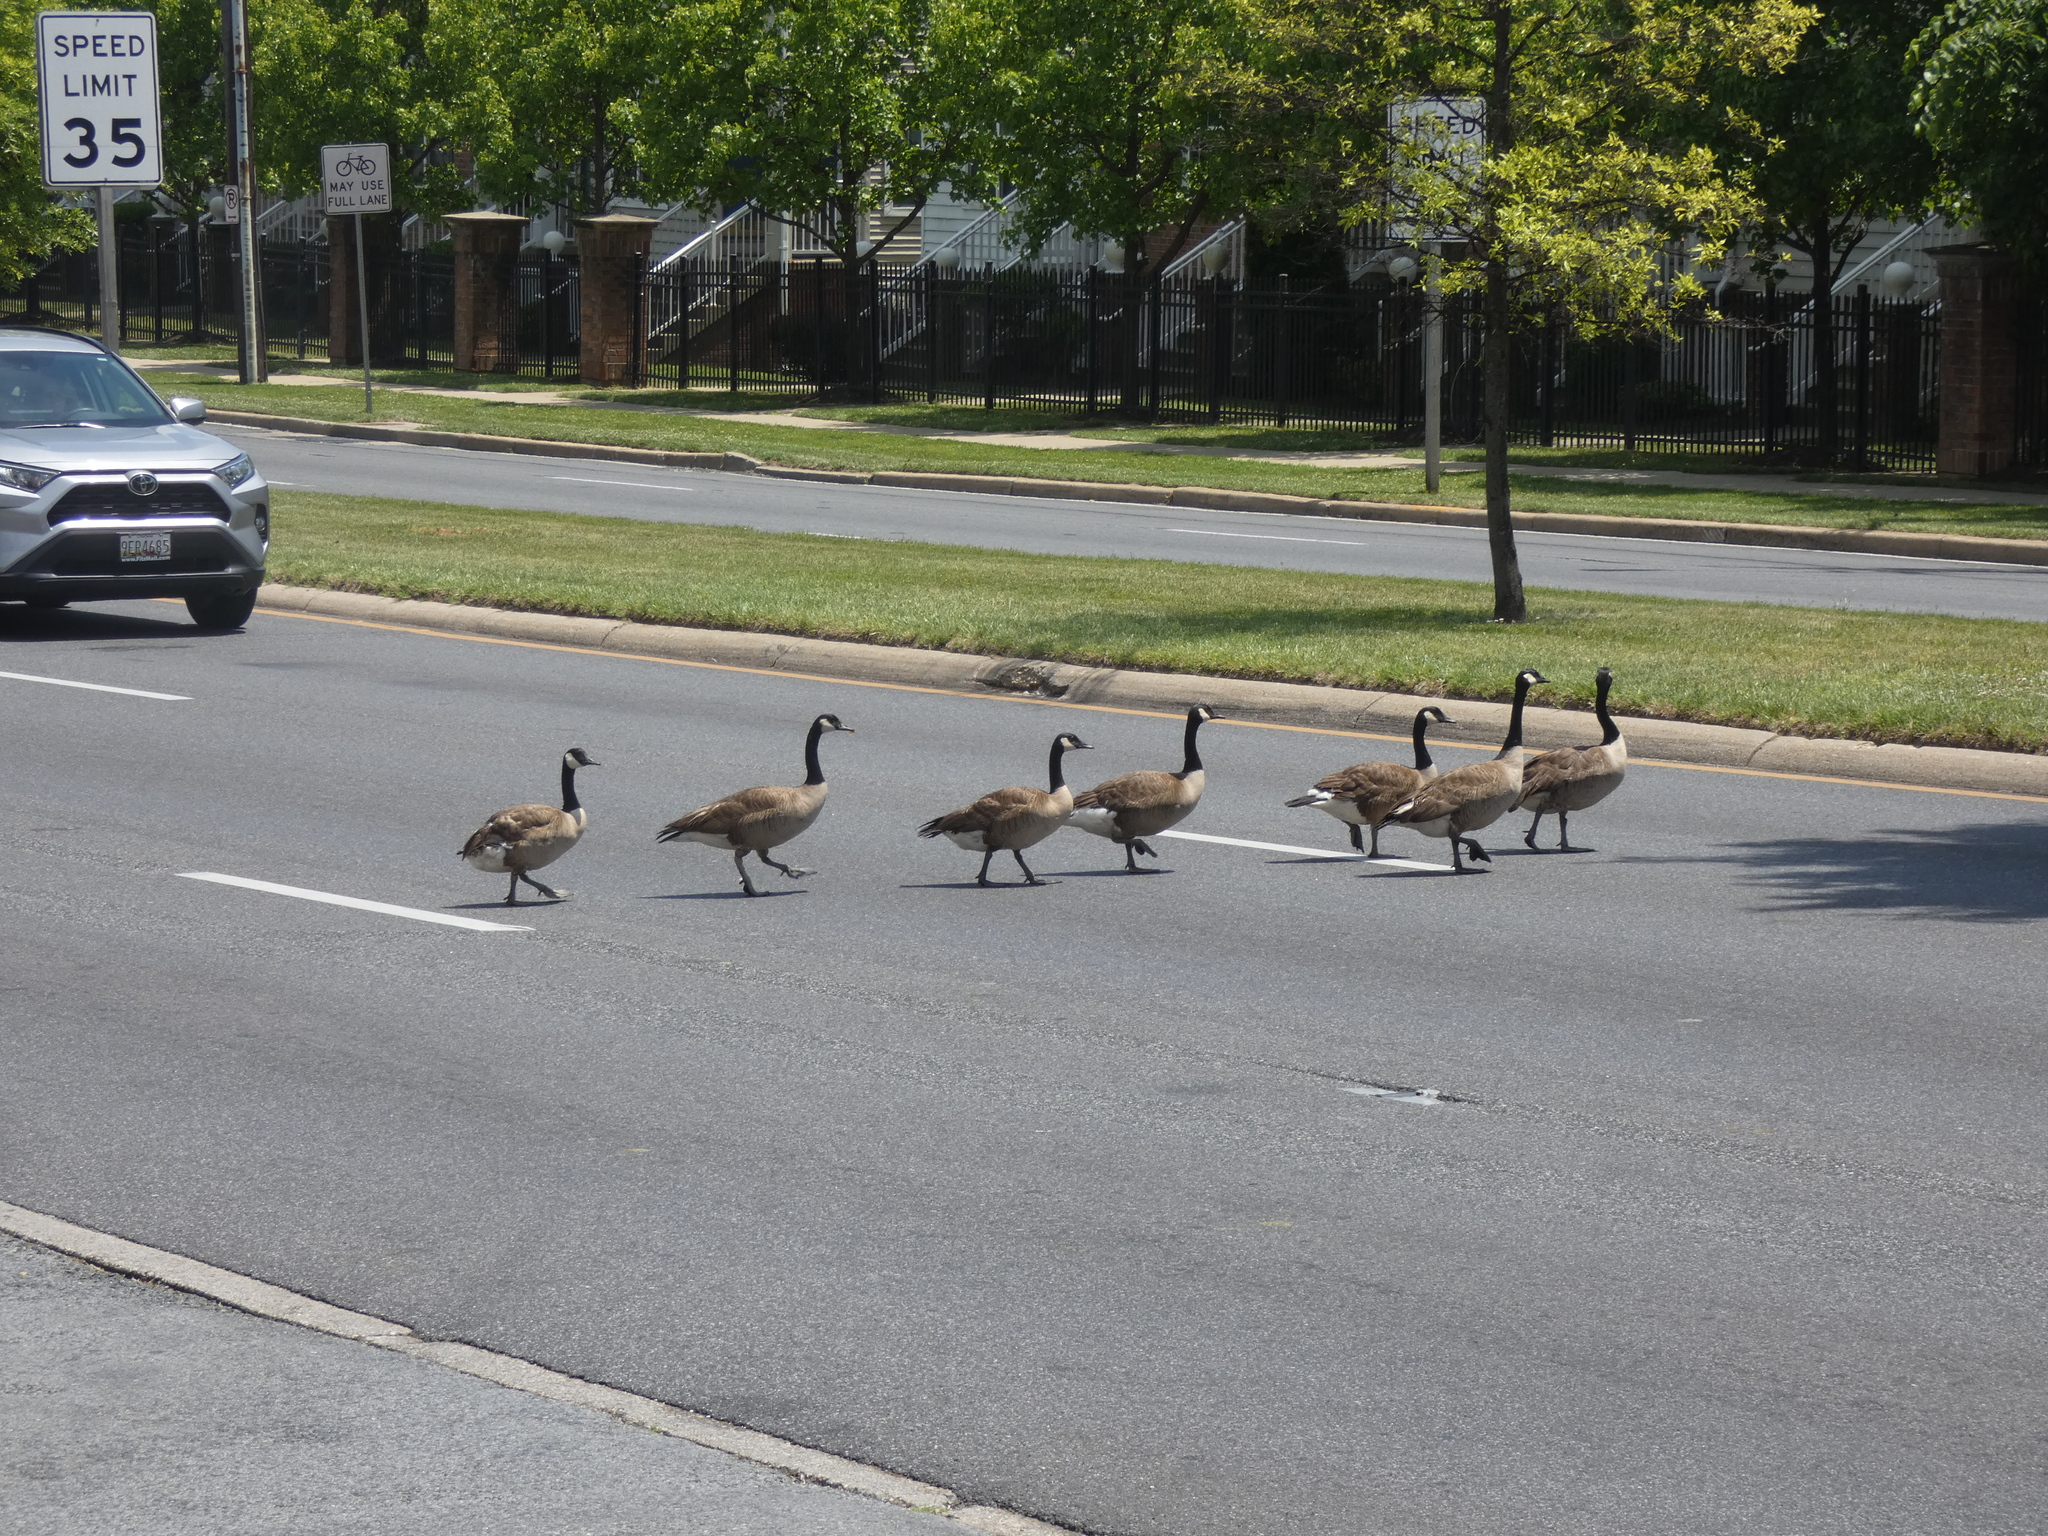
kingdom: Animalia
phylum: Chordata
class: Aves
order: Anseriformes
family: Anatidae
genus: Branta
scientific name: Branta canadensis
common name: Canada goose
